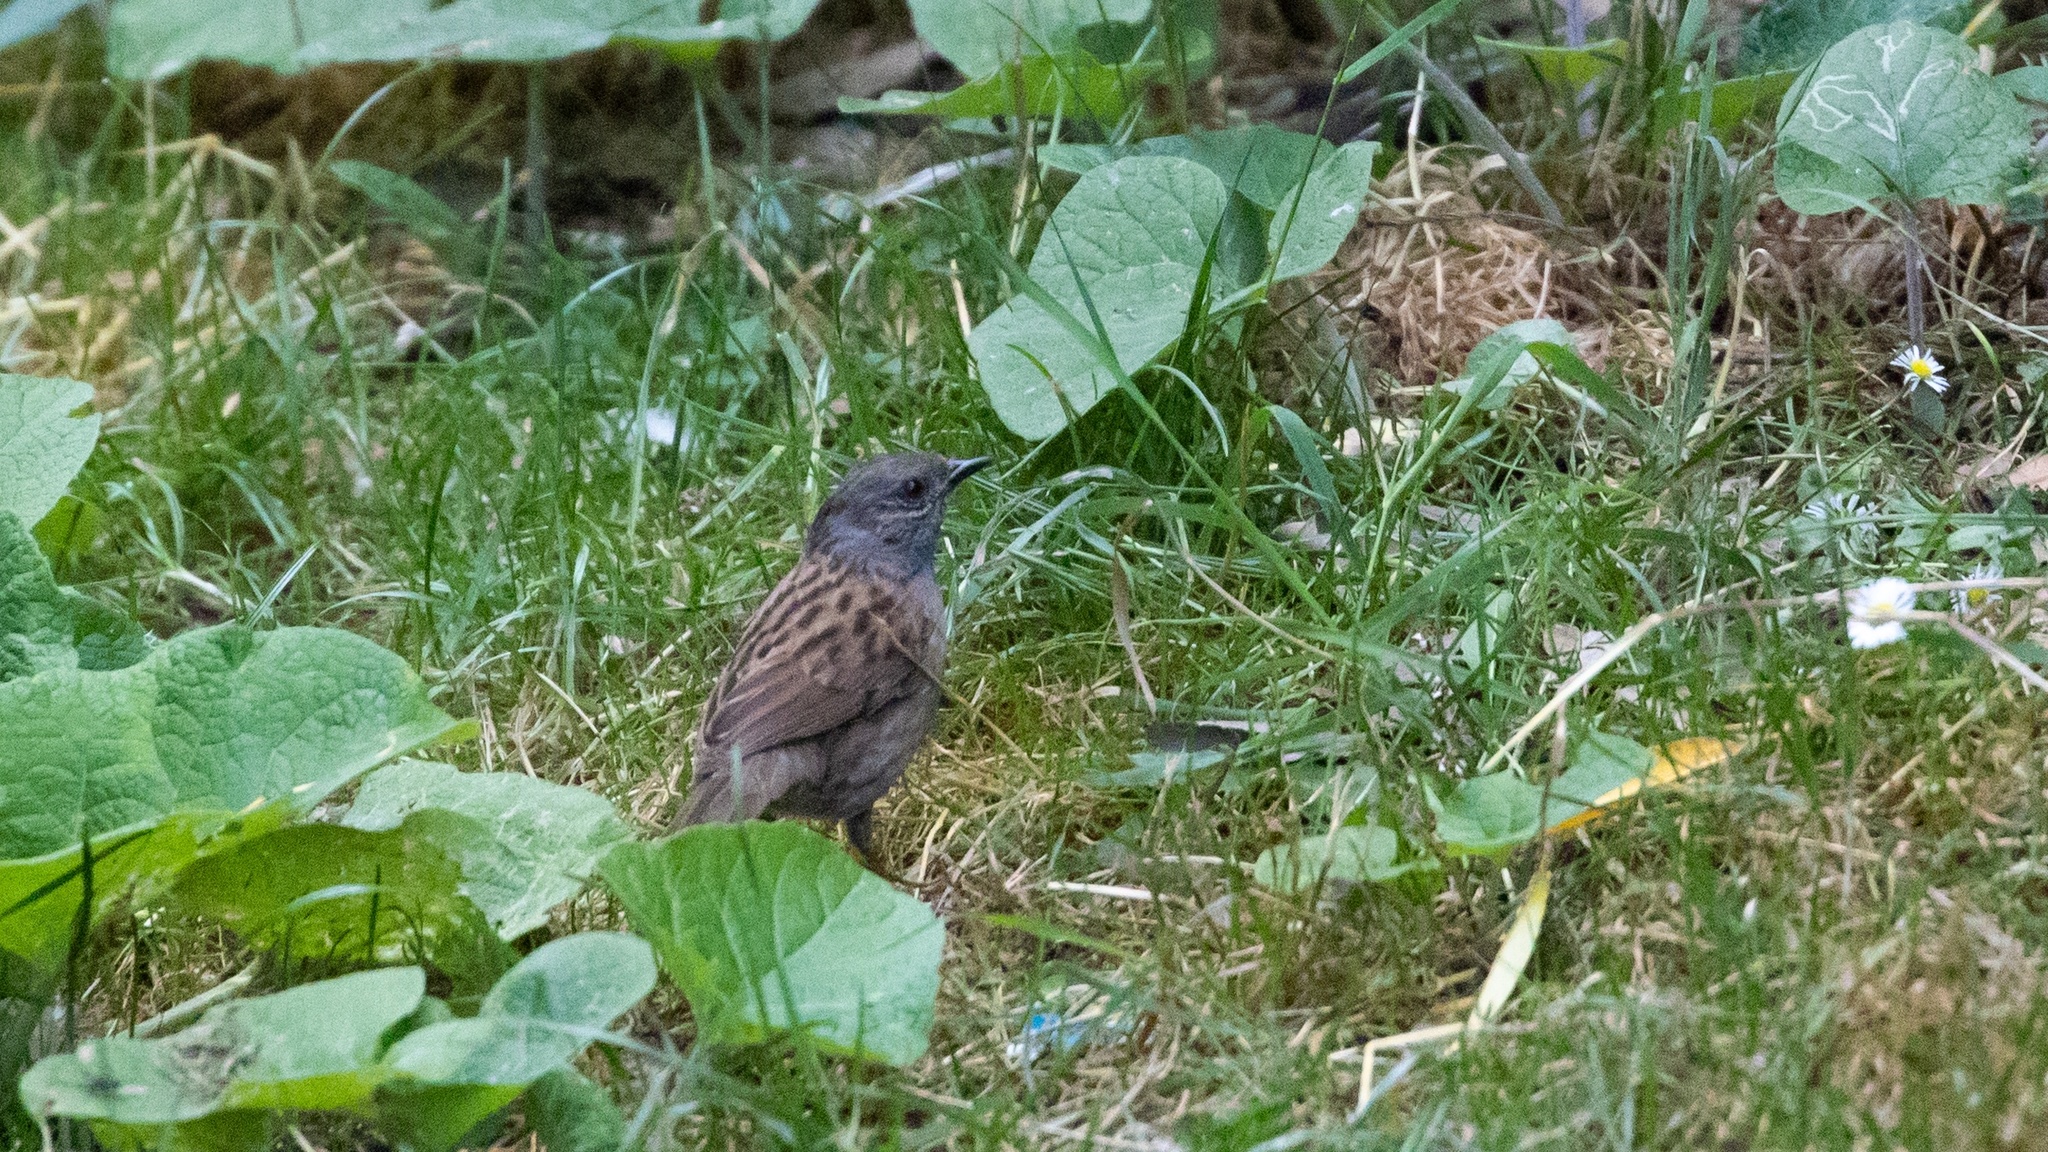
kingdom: Animalia
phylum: Chordata
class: Aves
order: Passeriformes
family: Prunellidae
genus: Prunella
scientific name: Prunella modularis
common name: Dunnock
